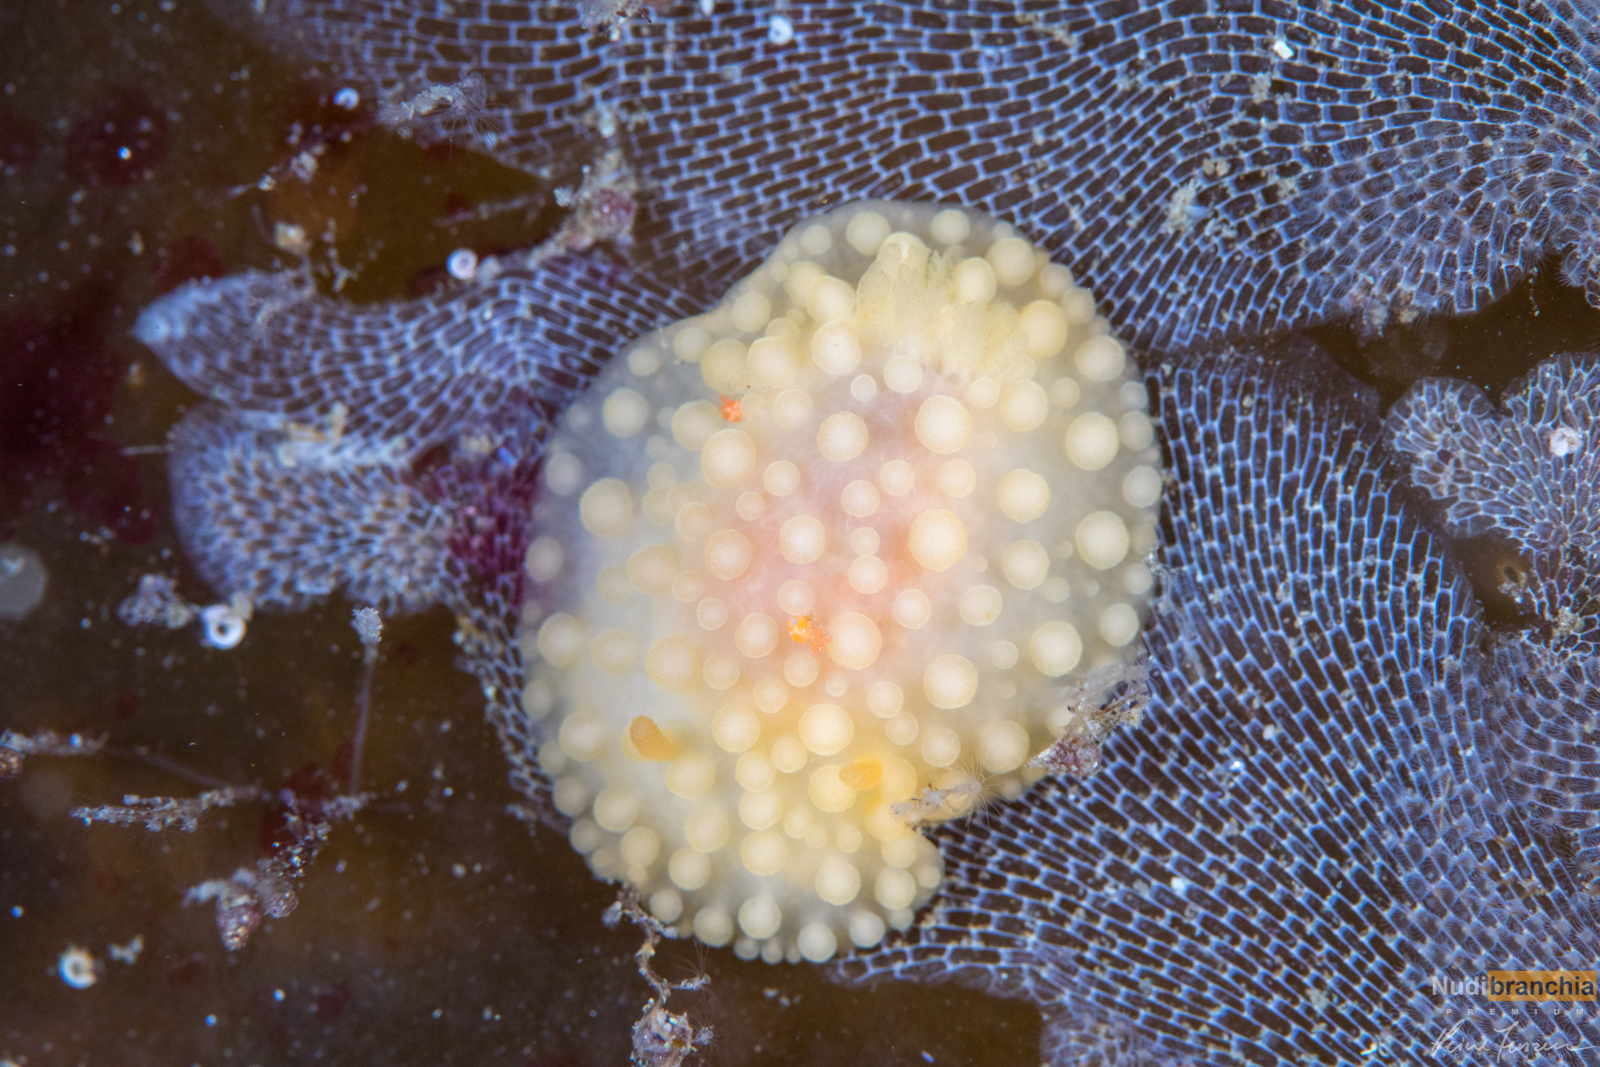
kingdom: Animalia
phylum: Mollusca
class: Gastropoda
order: Nudibranchia
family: Onchidorididae
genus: Adalaria
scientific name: Adalaria loveni
